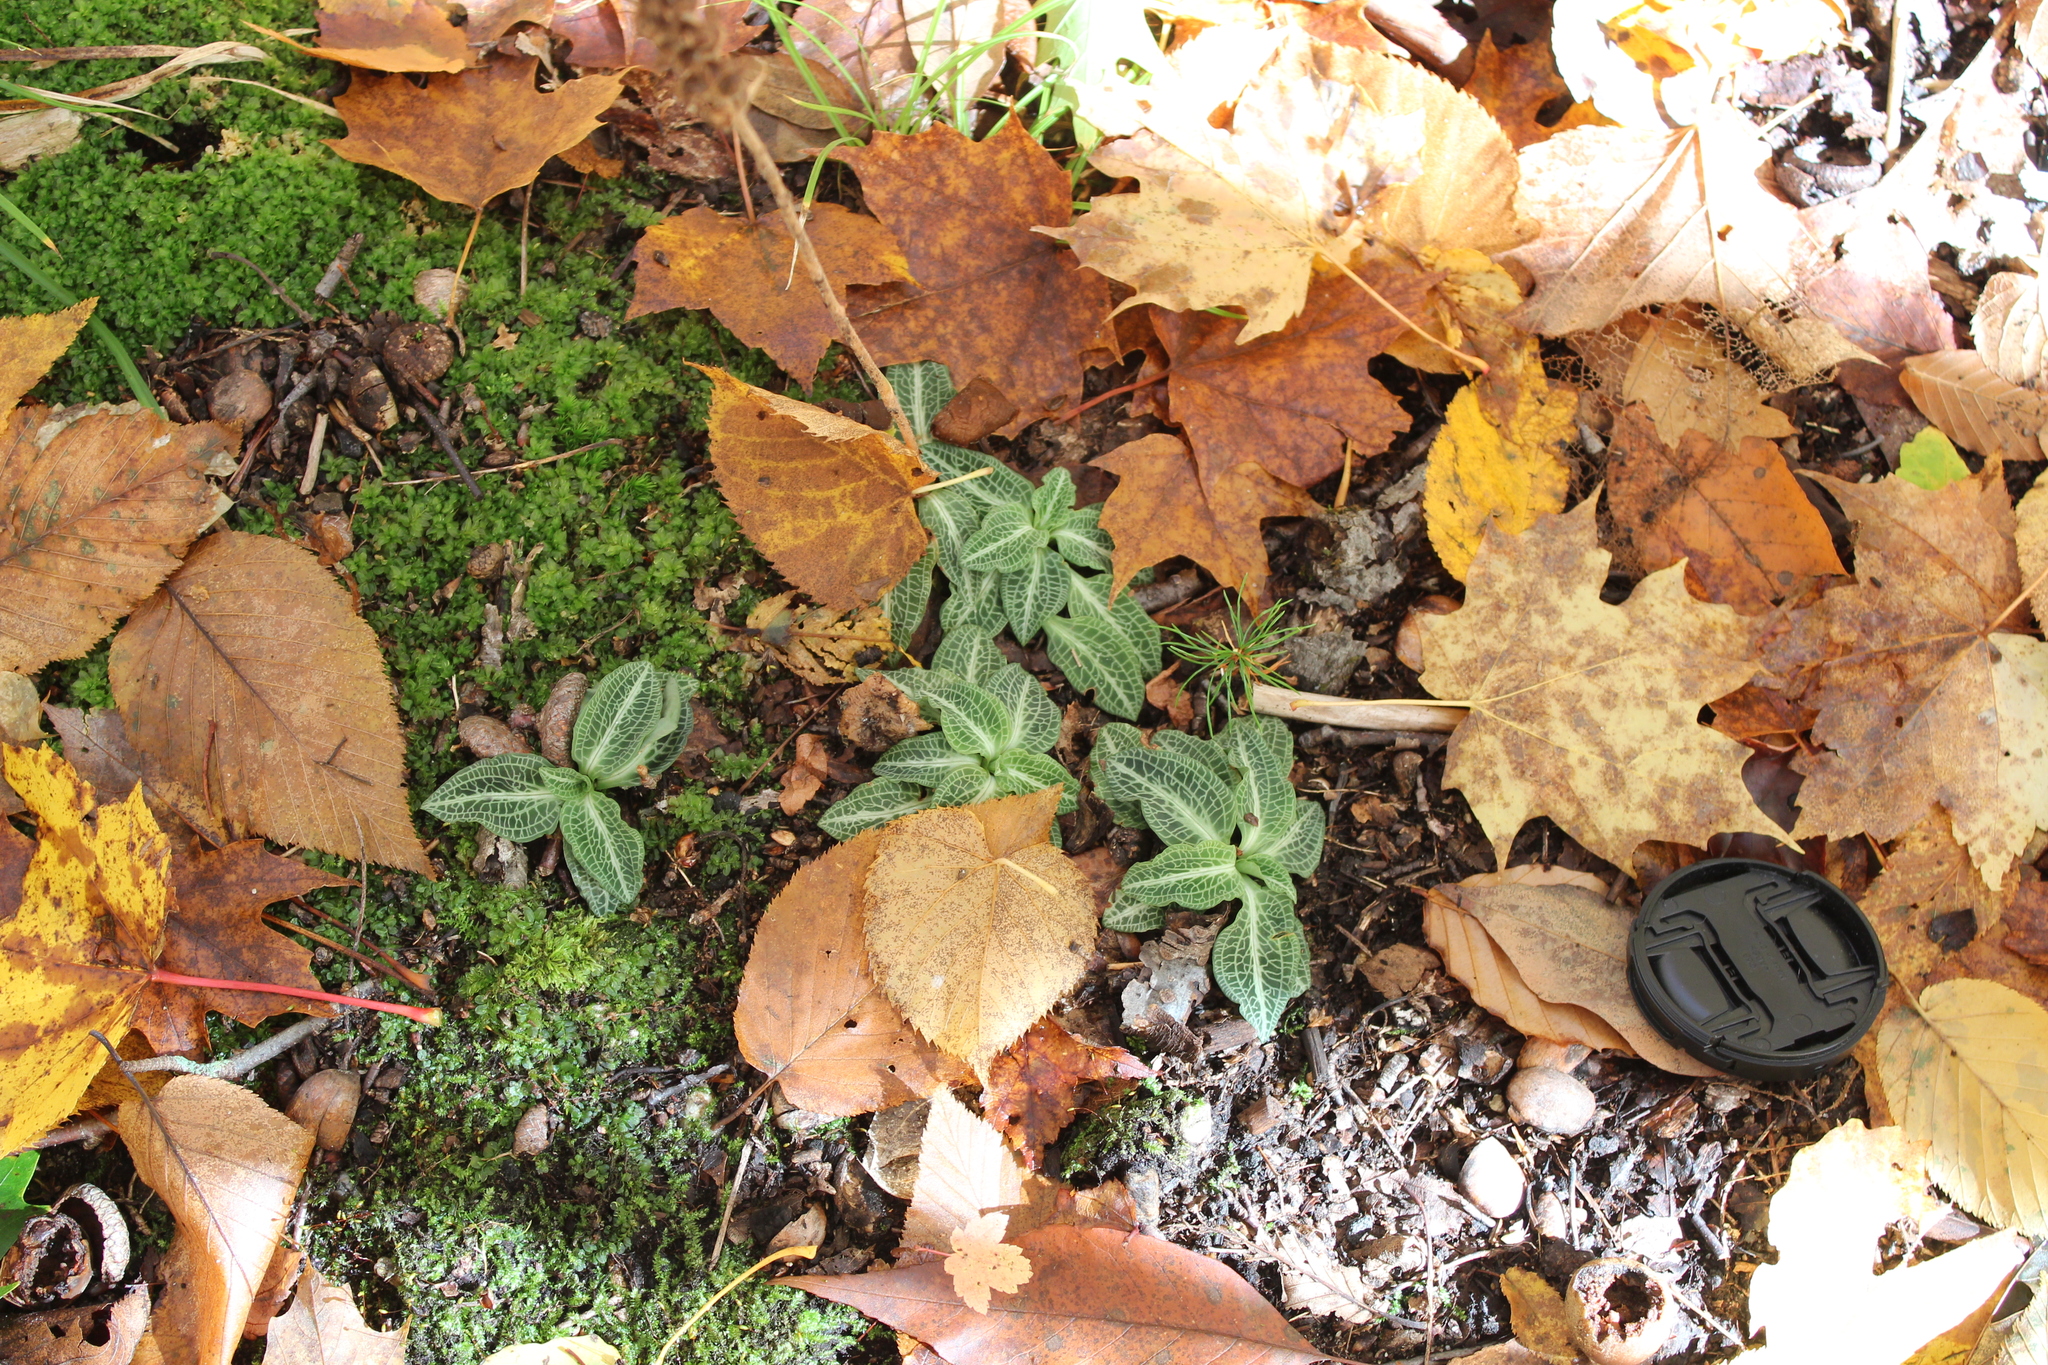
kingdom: Plantae
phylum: Tracheophyta
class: Liliopsida
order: Asparagales
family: Orchidaceae
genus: Goodyera
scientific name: Goodyera pubescens
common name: Downy rattlesnake-plantain
